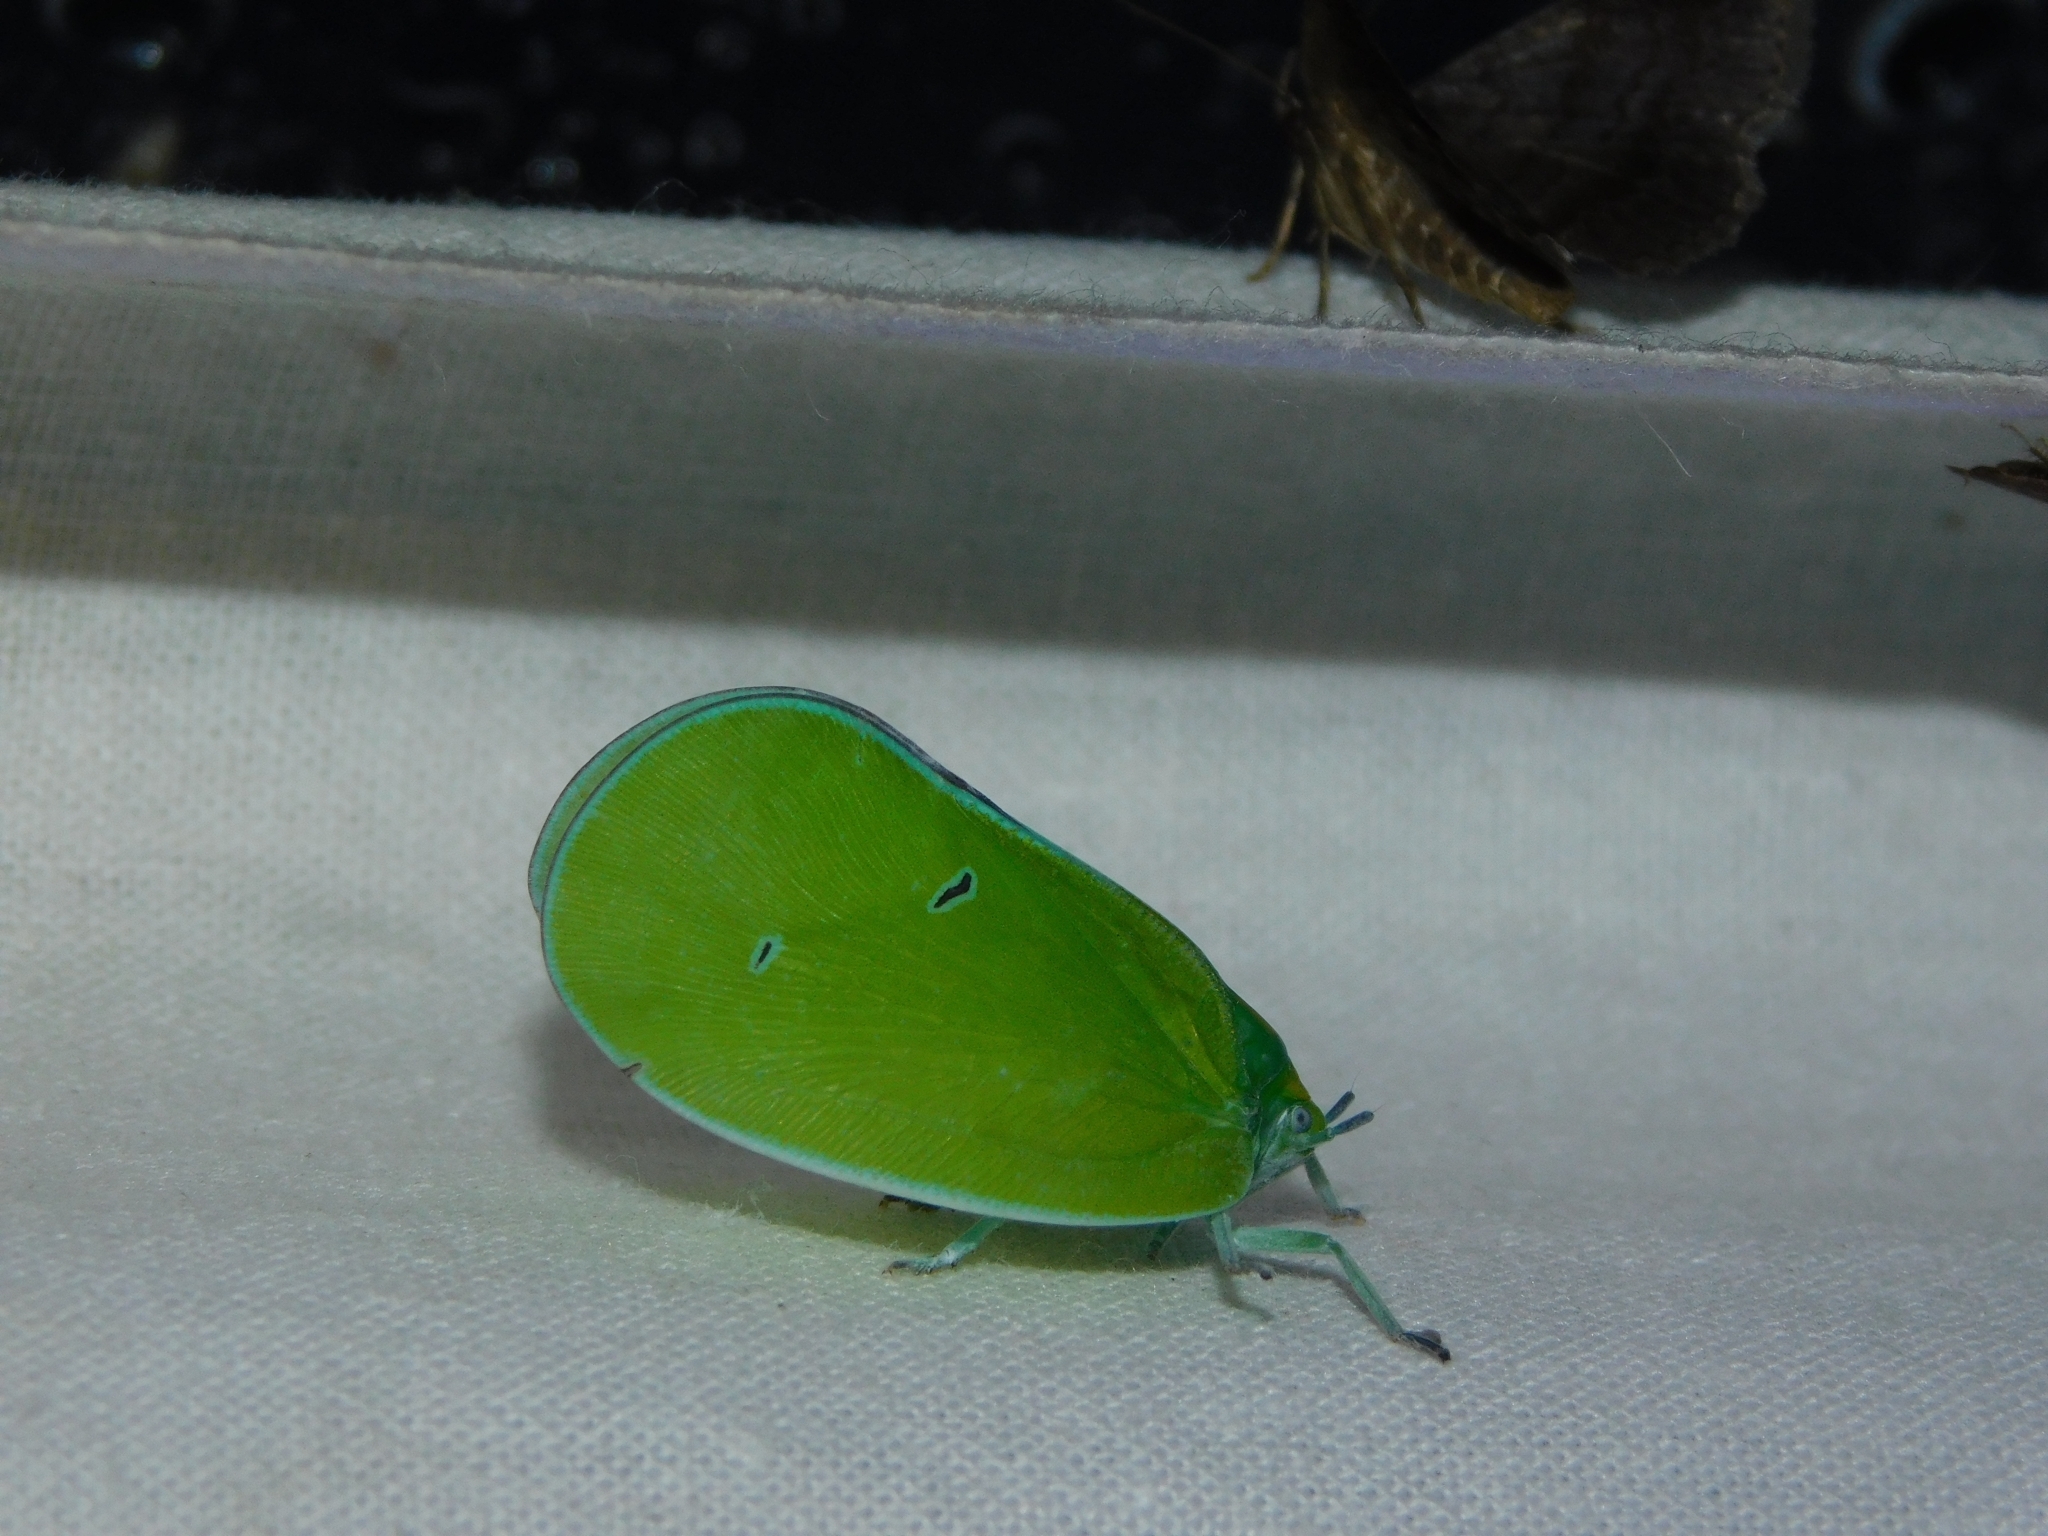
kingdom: Animalia
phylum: Arthropoda
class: Insecta
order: Hemiptera
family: Flatidae
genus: Flatida
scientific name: Flatida viridula
